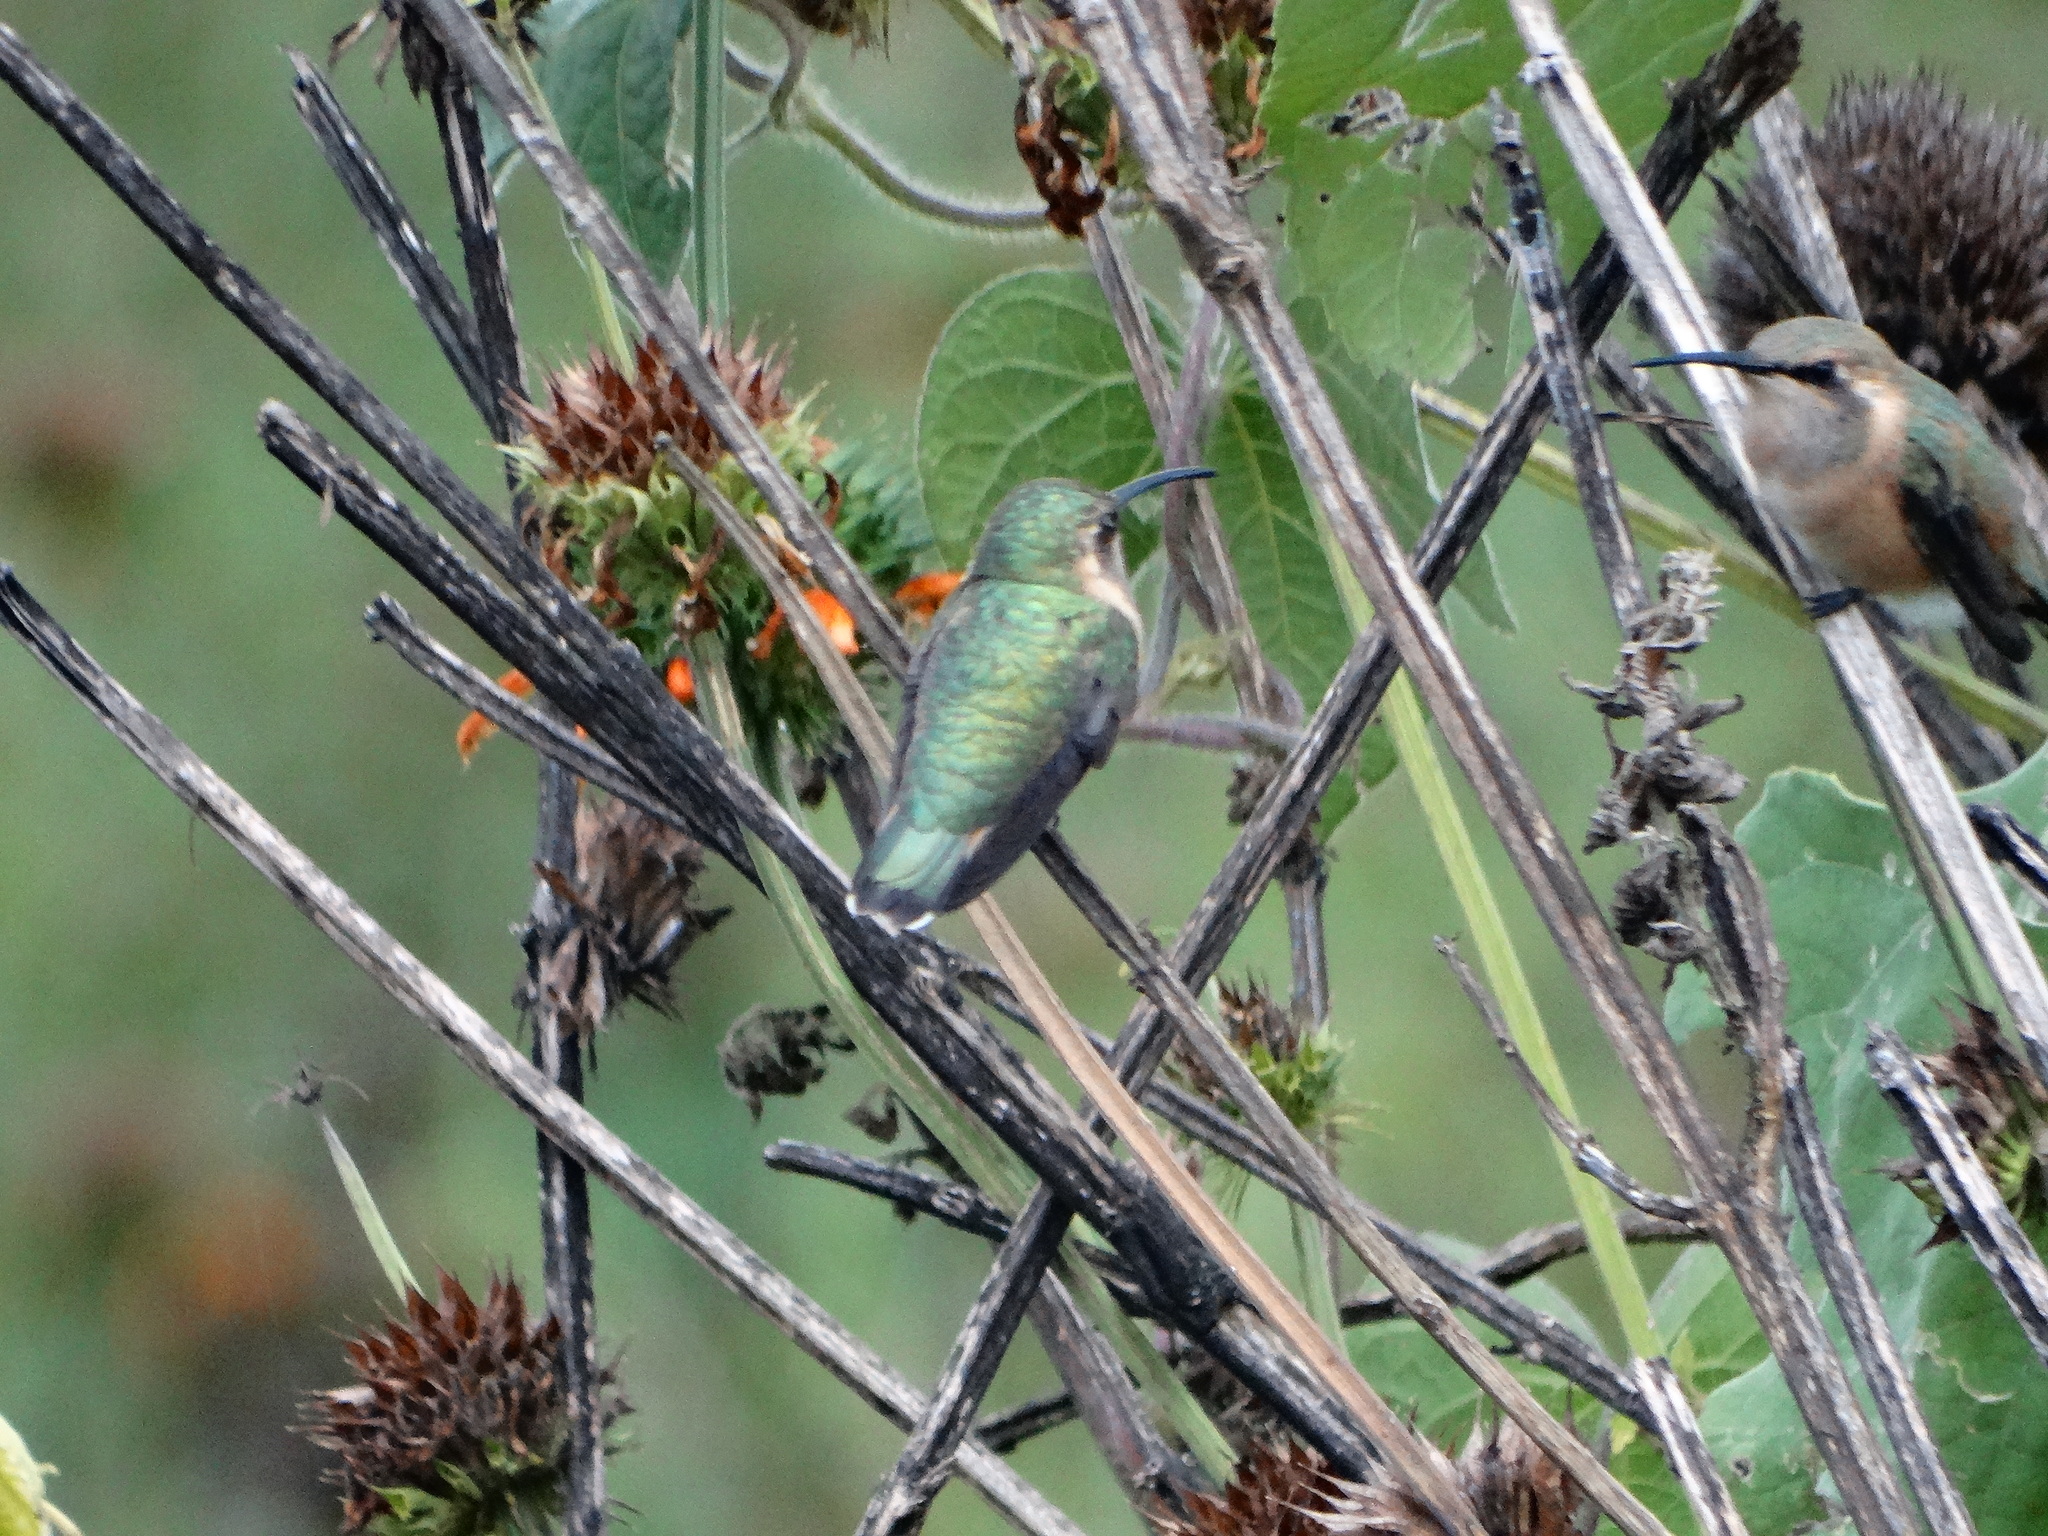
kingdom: Animalia
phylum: Chordata
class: Aves
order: Apodiformes
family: Trochilidae
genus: Calothorax
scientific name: Calothorax lucifer
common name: Lucifer sheartail
